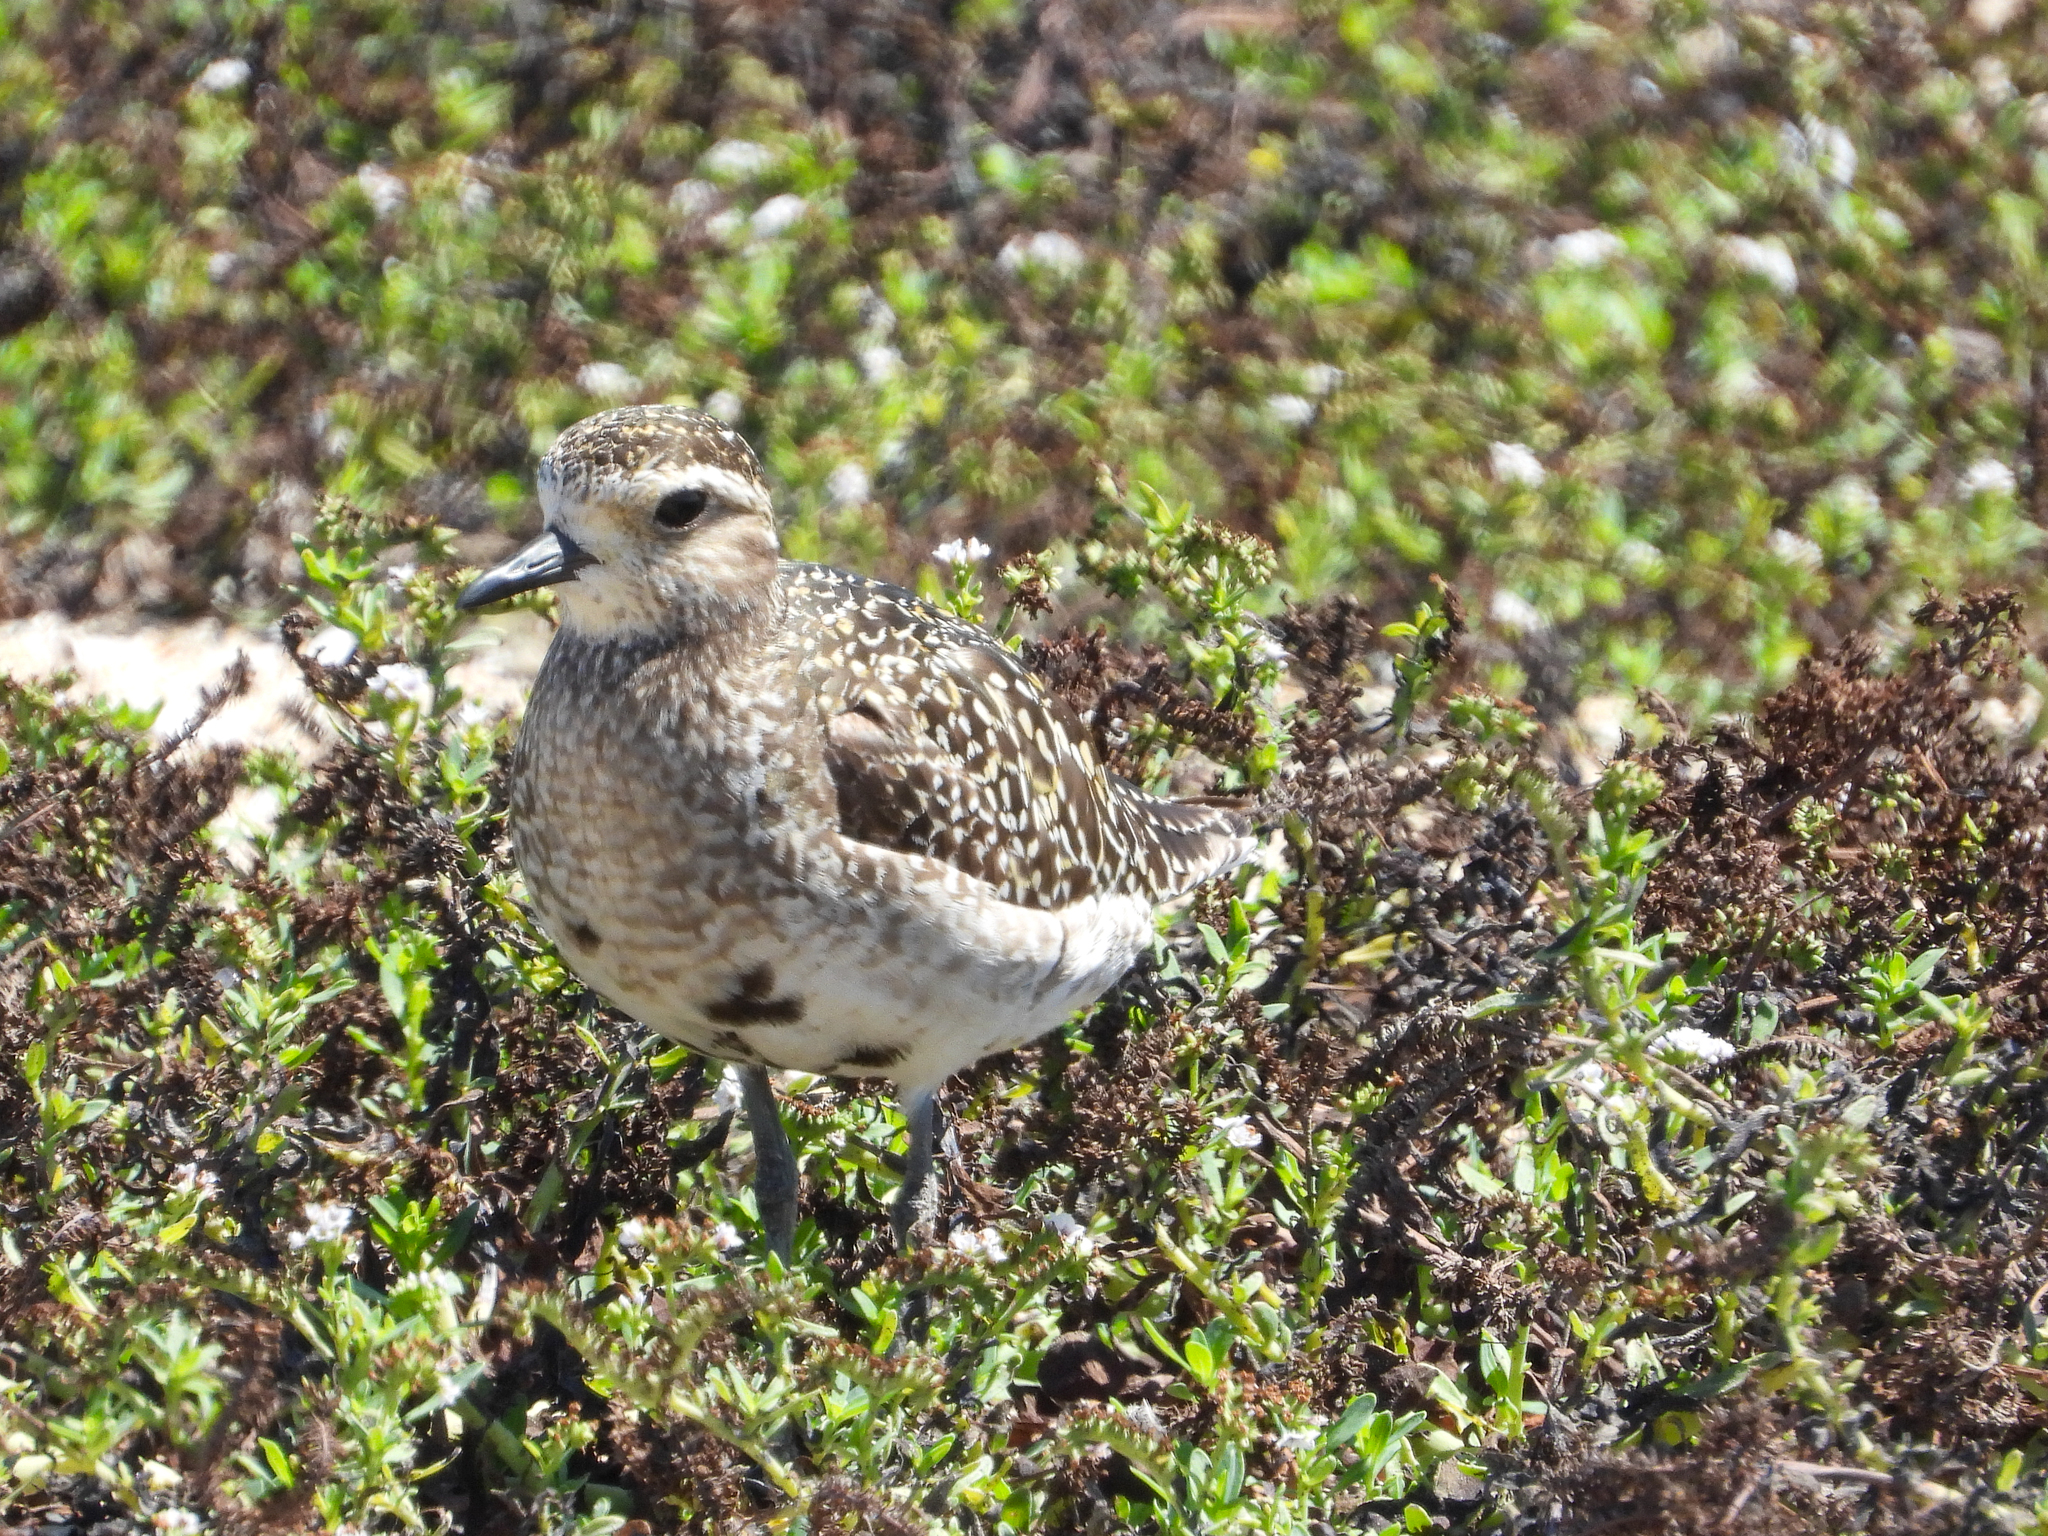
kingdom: Animalia
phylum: Chordata
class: Aves
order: Charadriiformes
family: Charadriidae
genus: Pluvialis
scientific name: Pluvialis fulva
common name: Pacific golden plover
